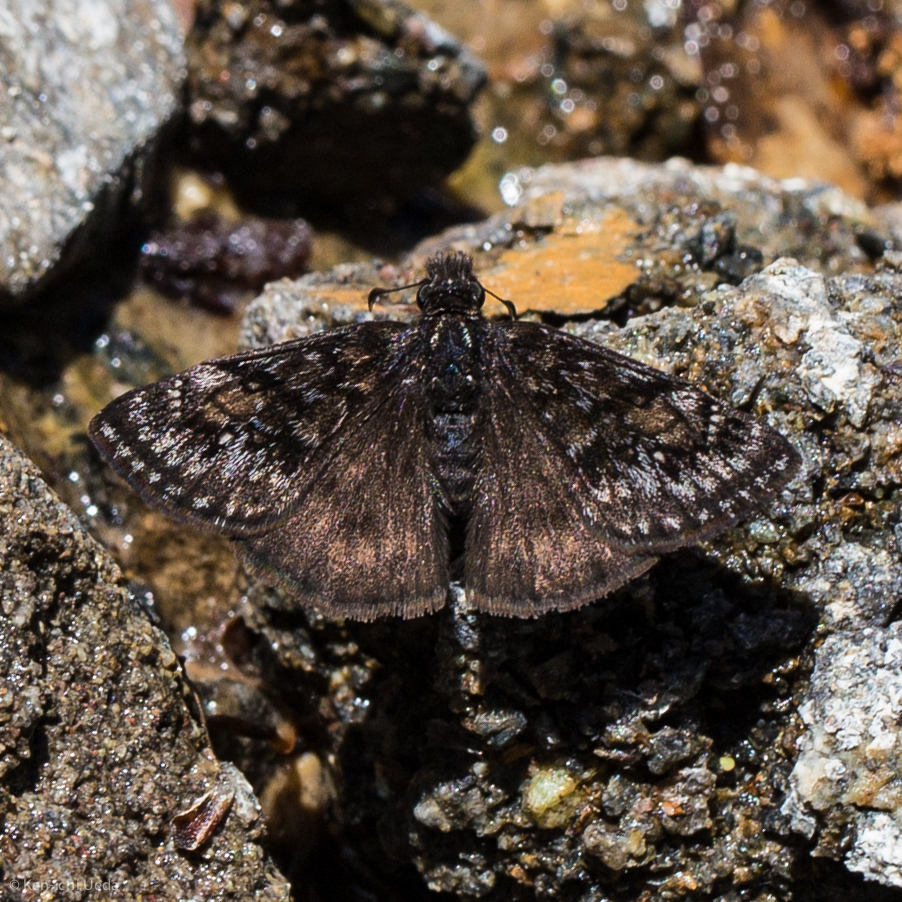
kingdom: Animalia
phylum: Arthropoda
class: Insecta
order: Lepidoptera
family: Hesperiidae
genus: Erynnis
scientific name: Erynnis pacuvius
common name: Pacuvius duskywing
